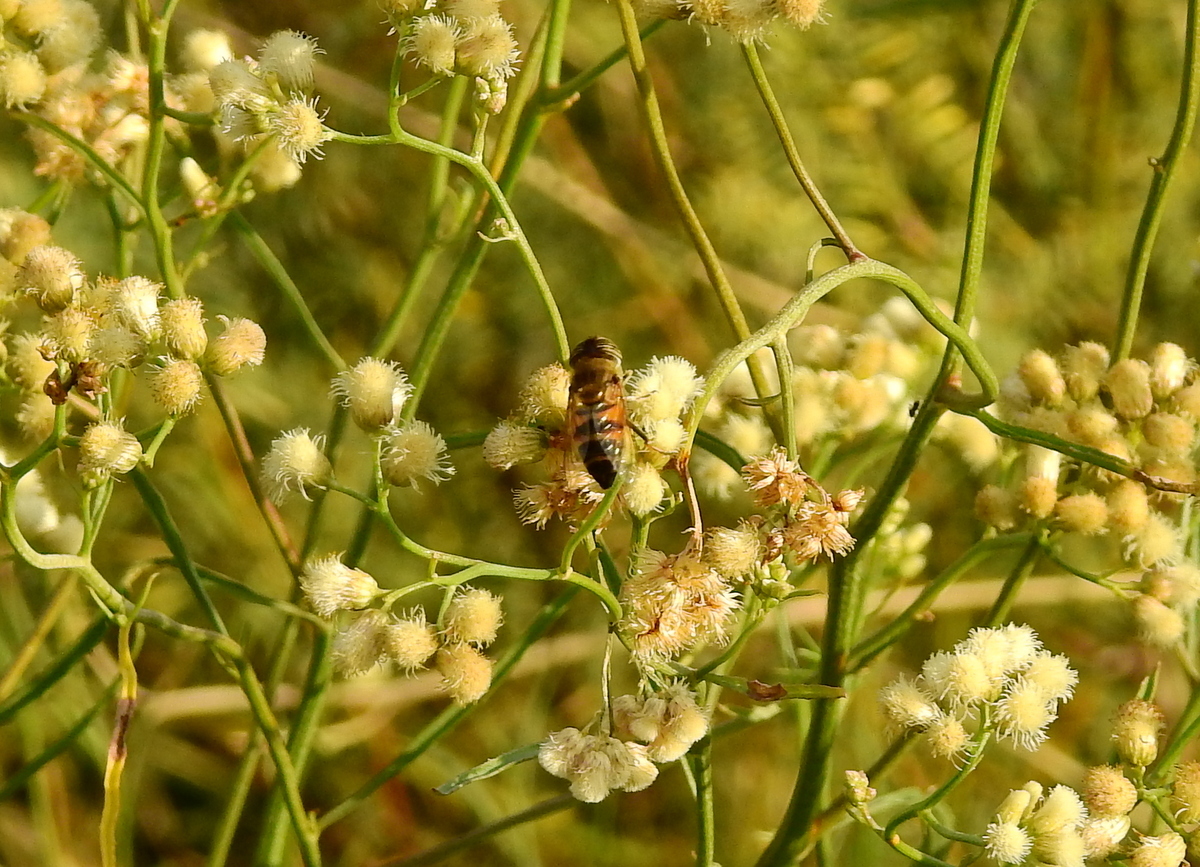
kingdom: Animalia
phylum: Arthropoda
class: Insecta
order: Diptera
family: Syrphidae
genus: Eristalinus
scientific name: Eristalinus taeniops
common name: Syrphid fly
